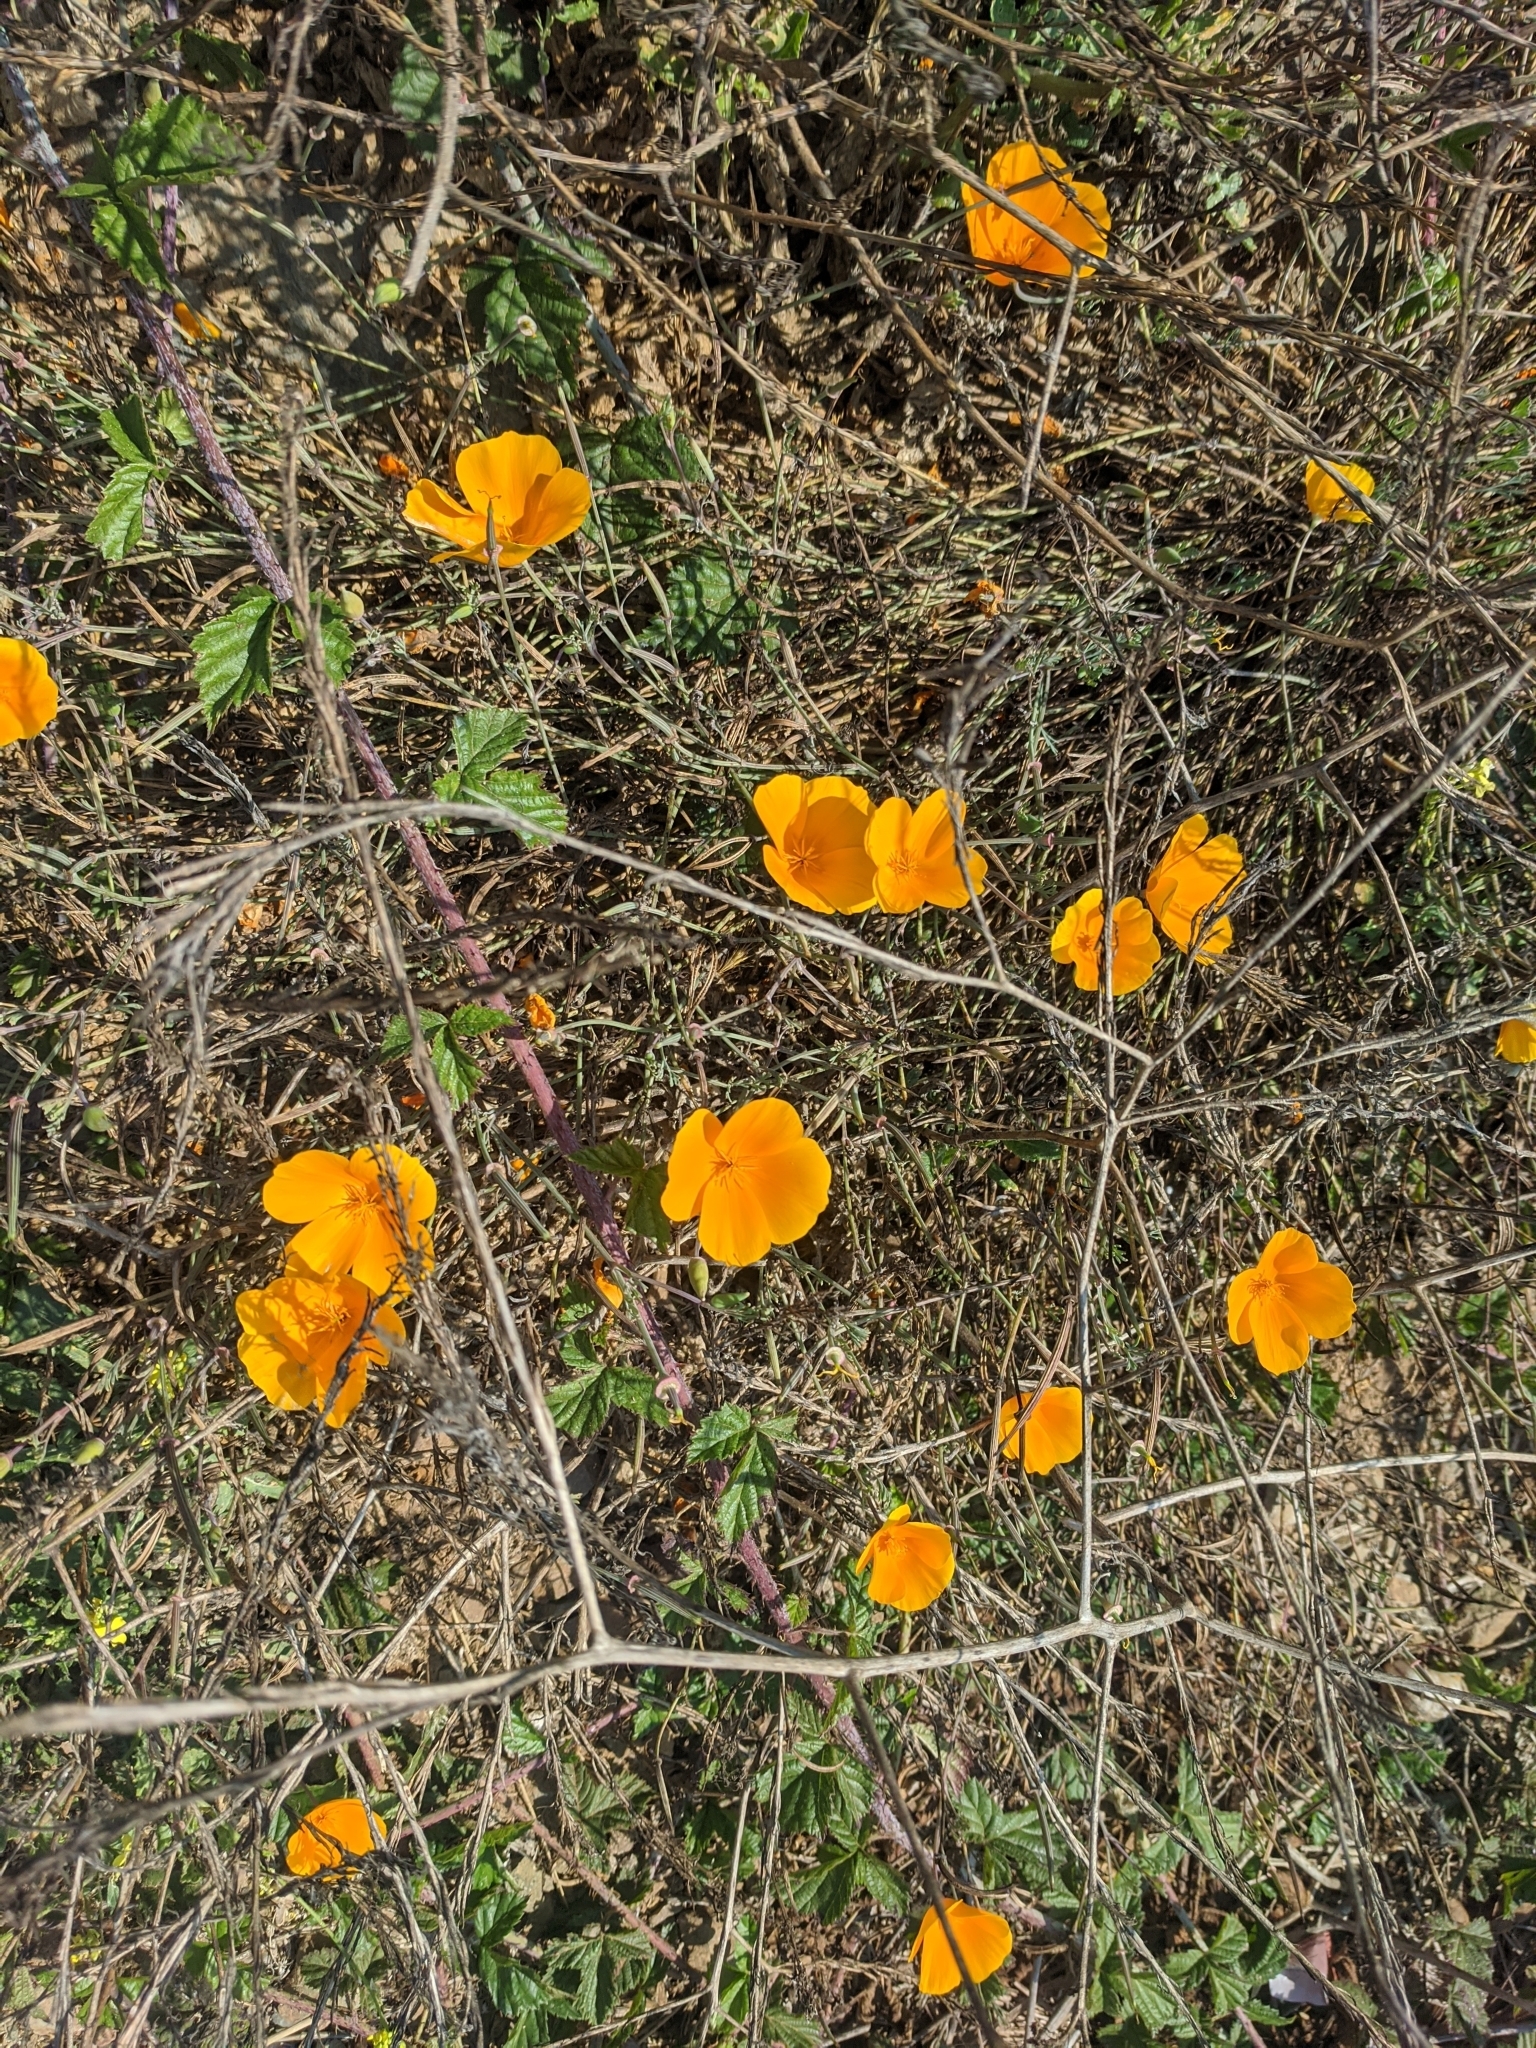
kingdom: Plantae
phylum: Tracheophyta
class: Magnoliopsida
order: Ranunculales
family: Papaveraceae
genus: Eschscholzia
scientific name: Eschscholzia californica
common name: California poppy
